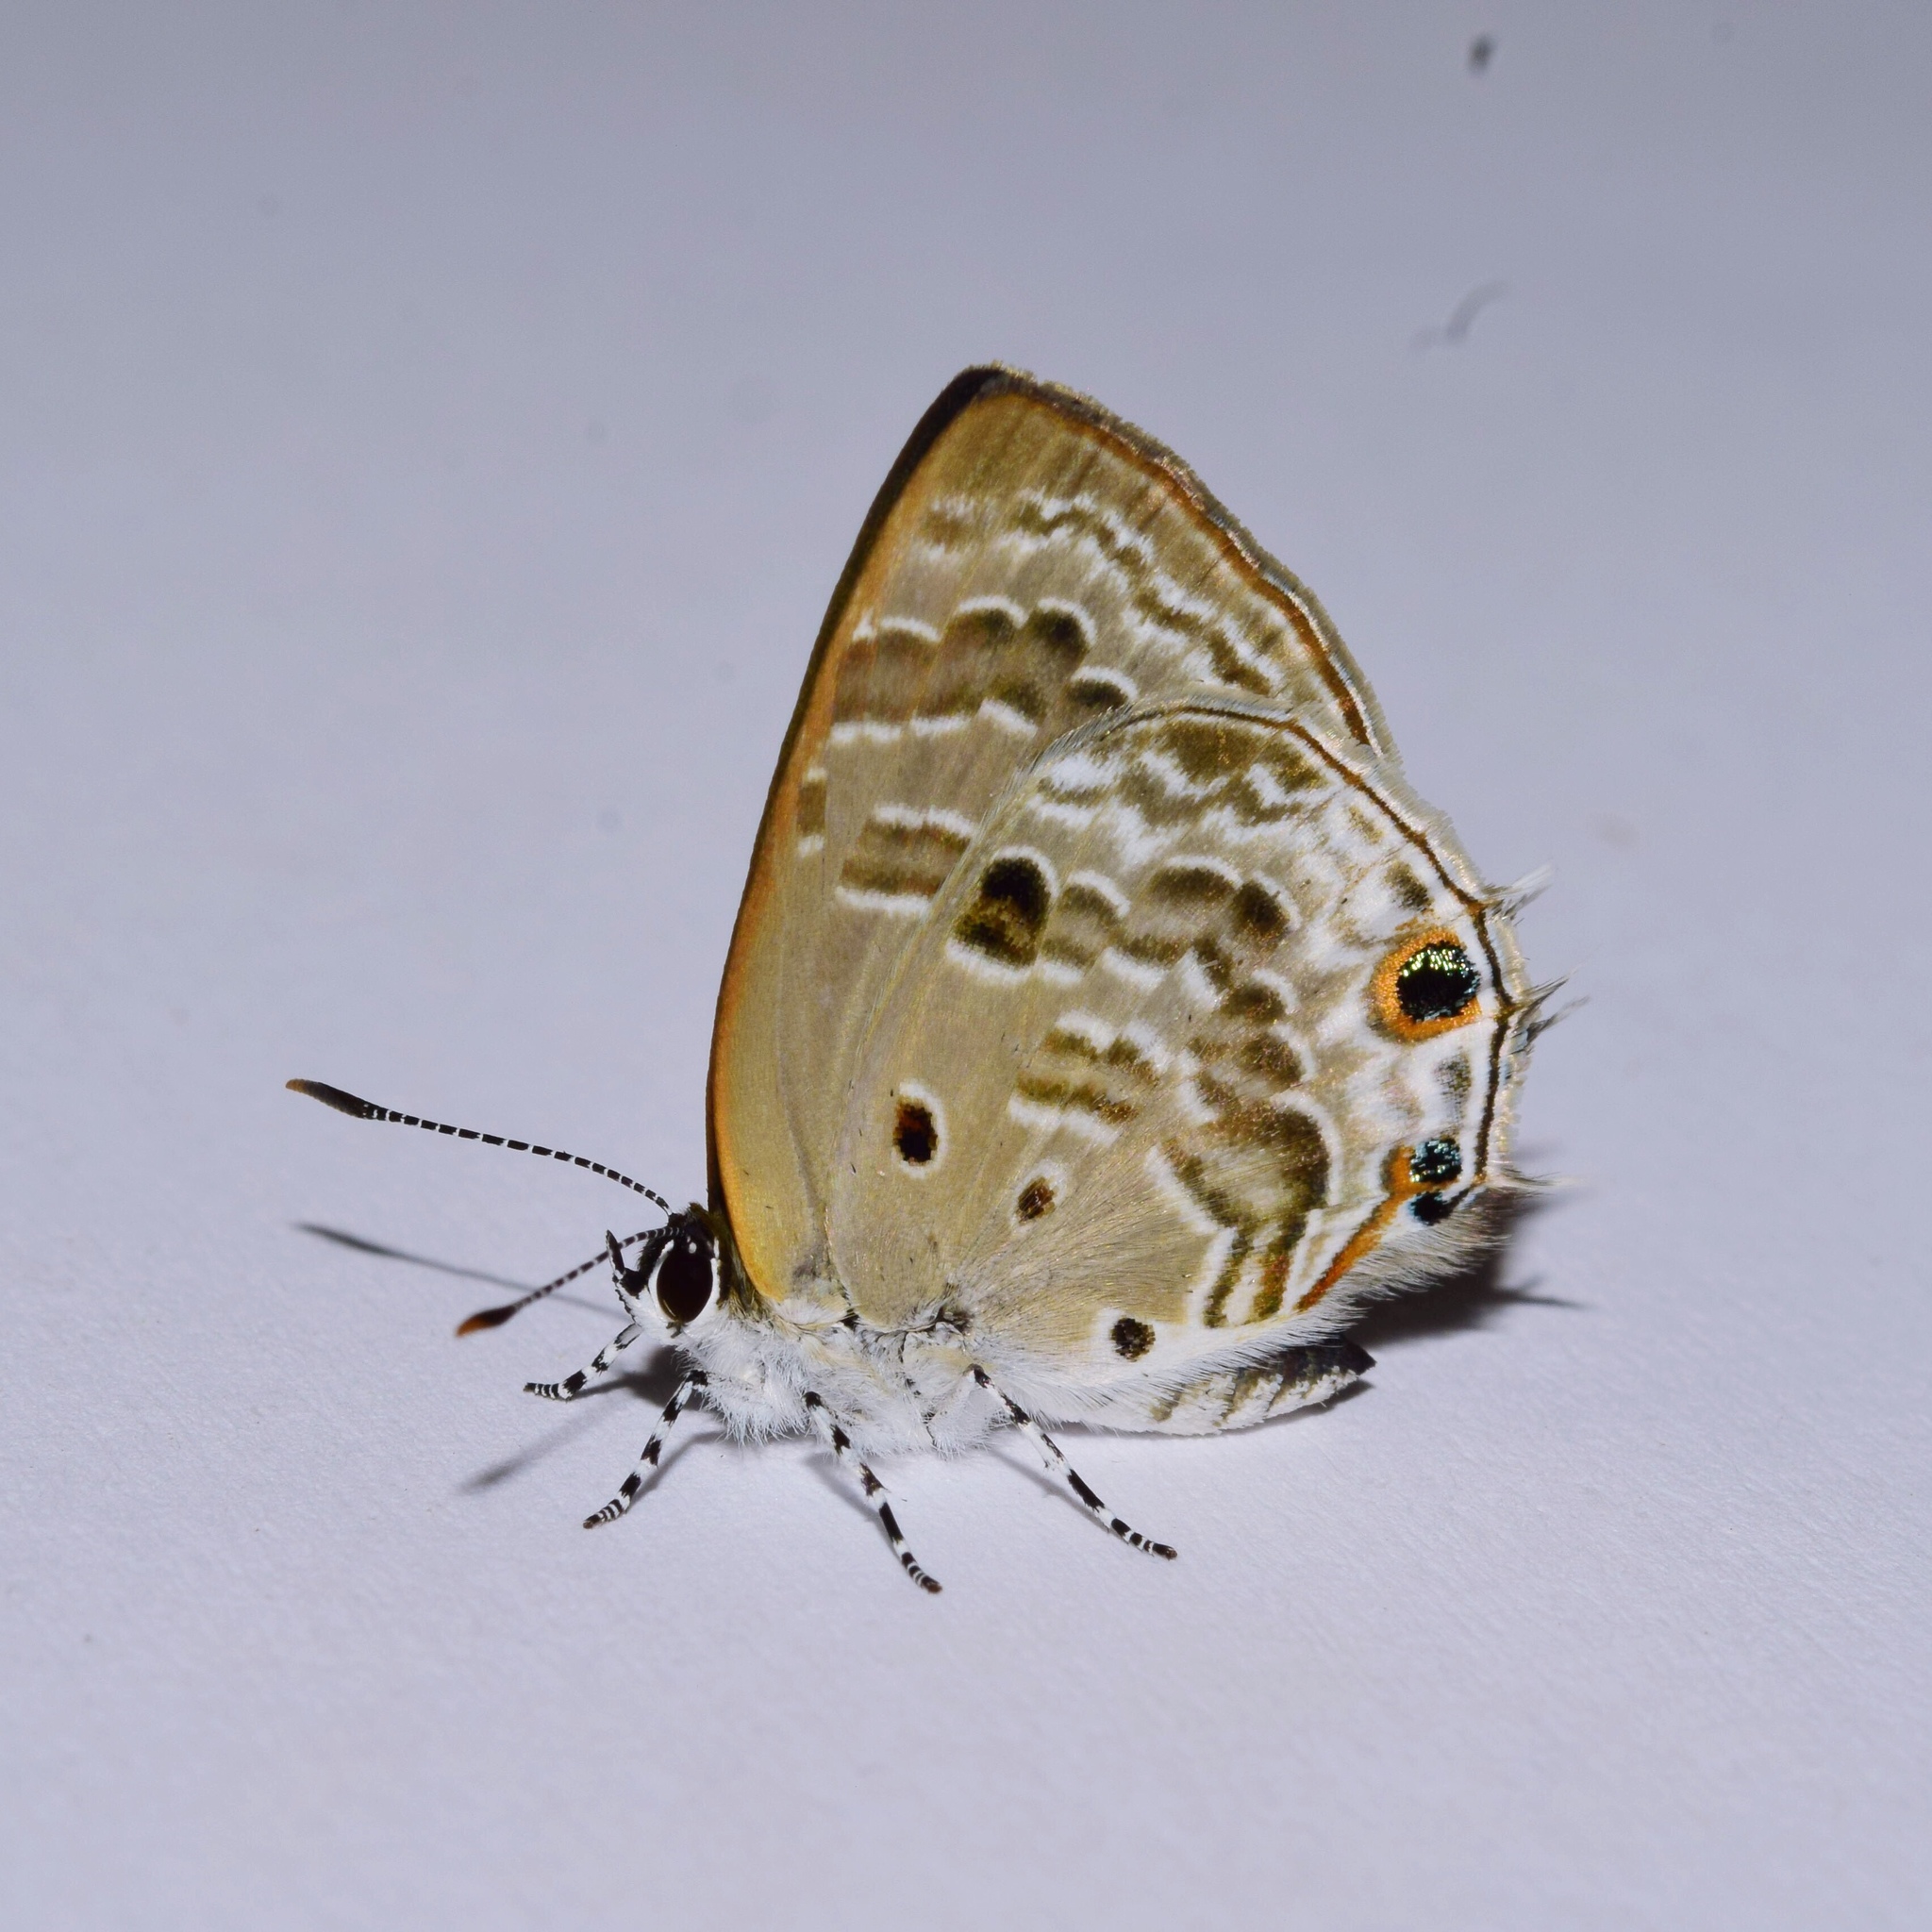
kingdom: Animalia
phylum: Arthropoda
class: Insecta
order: Lepidoptera
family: Lycaenidae
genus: Anthene
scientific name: Anthene lemnos
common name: Large ciliate blue
